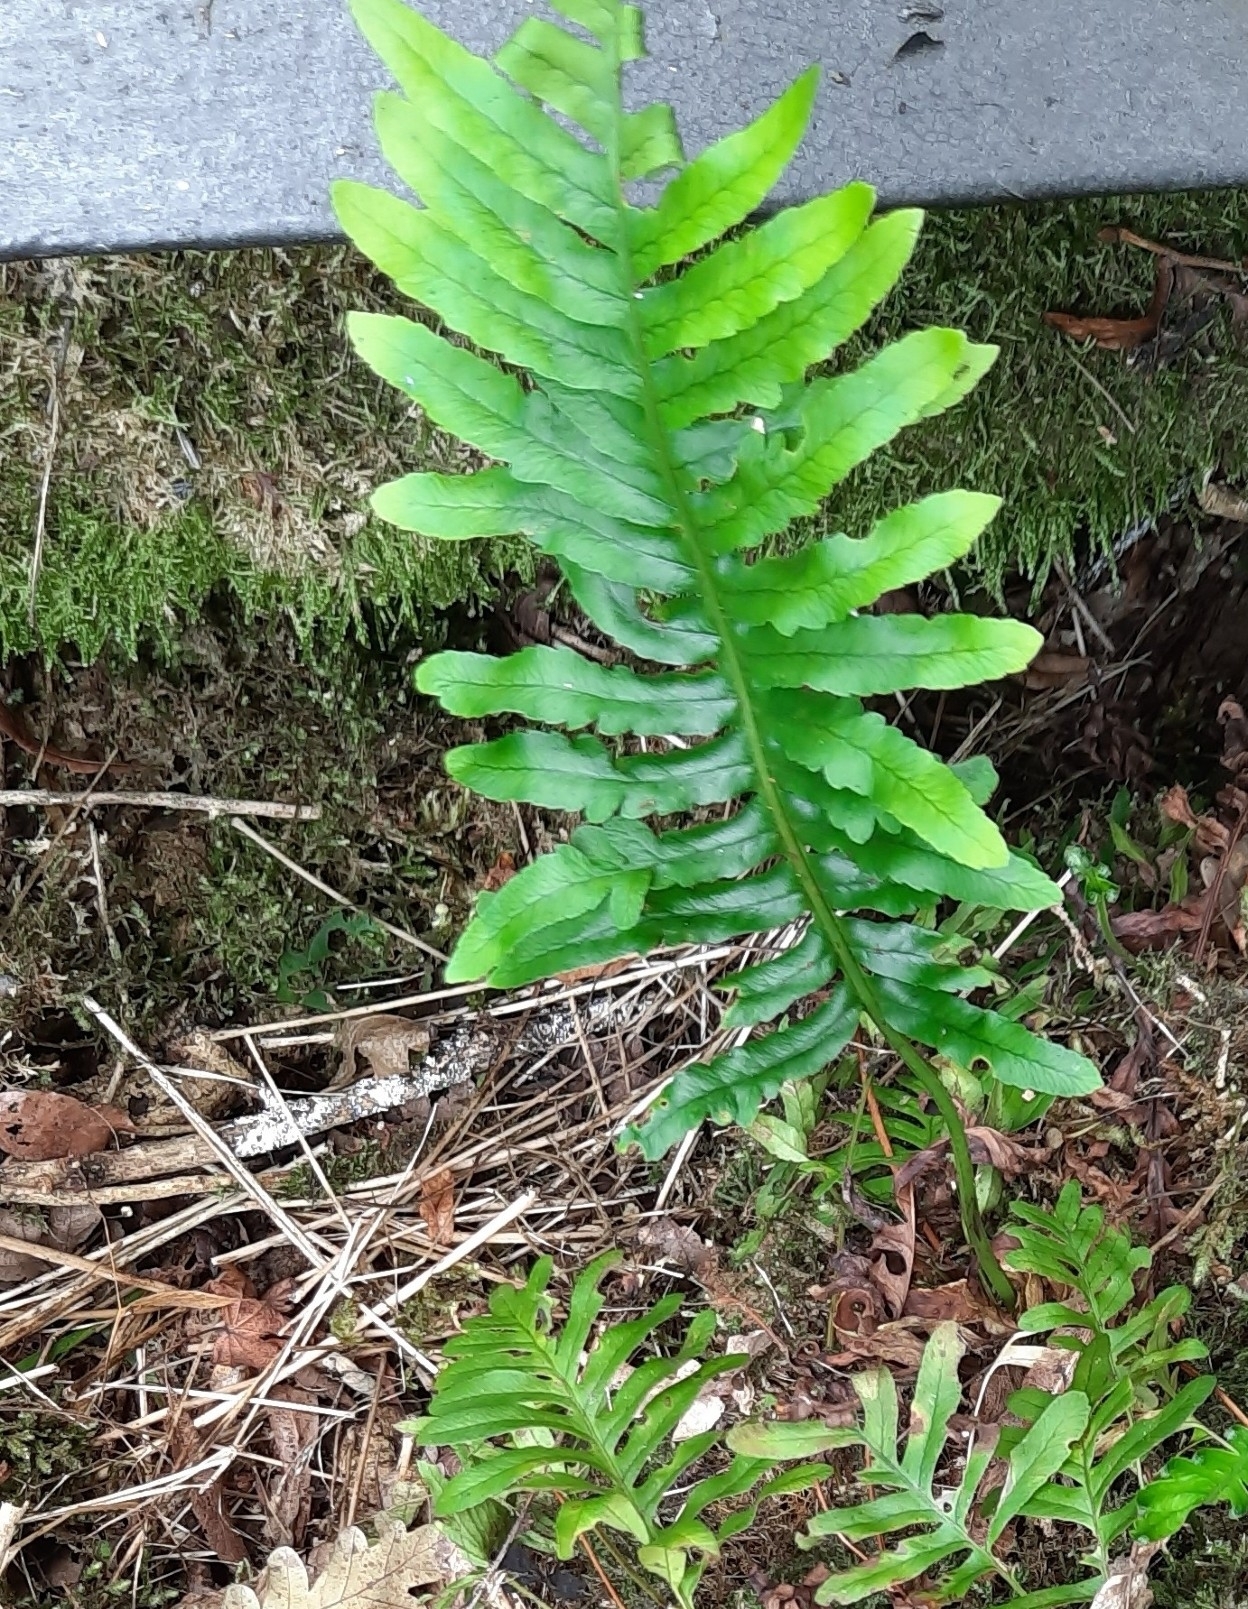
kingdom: Plantae
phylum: Tracheophyta
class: Polypodiopsida
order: Polypodiales
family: Polypodiaceae
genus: Polypodium
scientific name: Polypodium vulgare
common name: Common polypody
